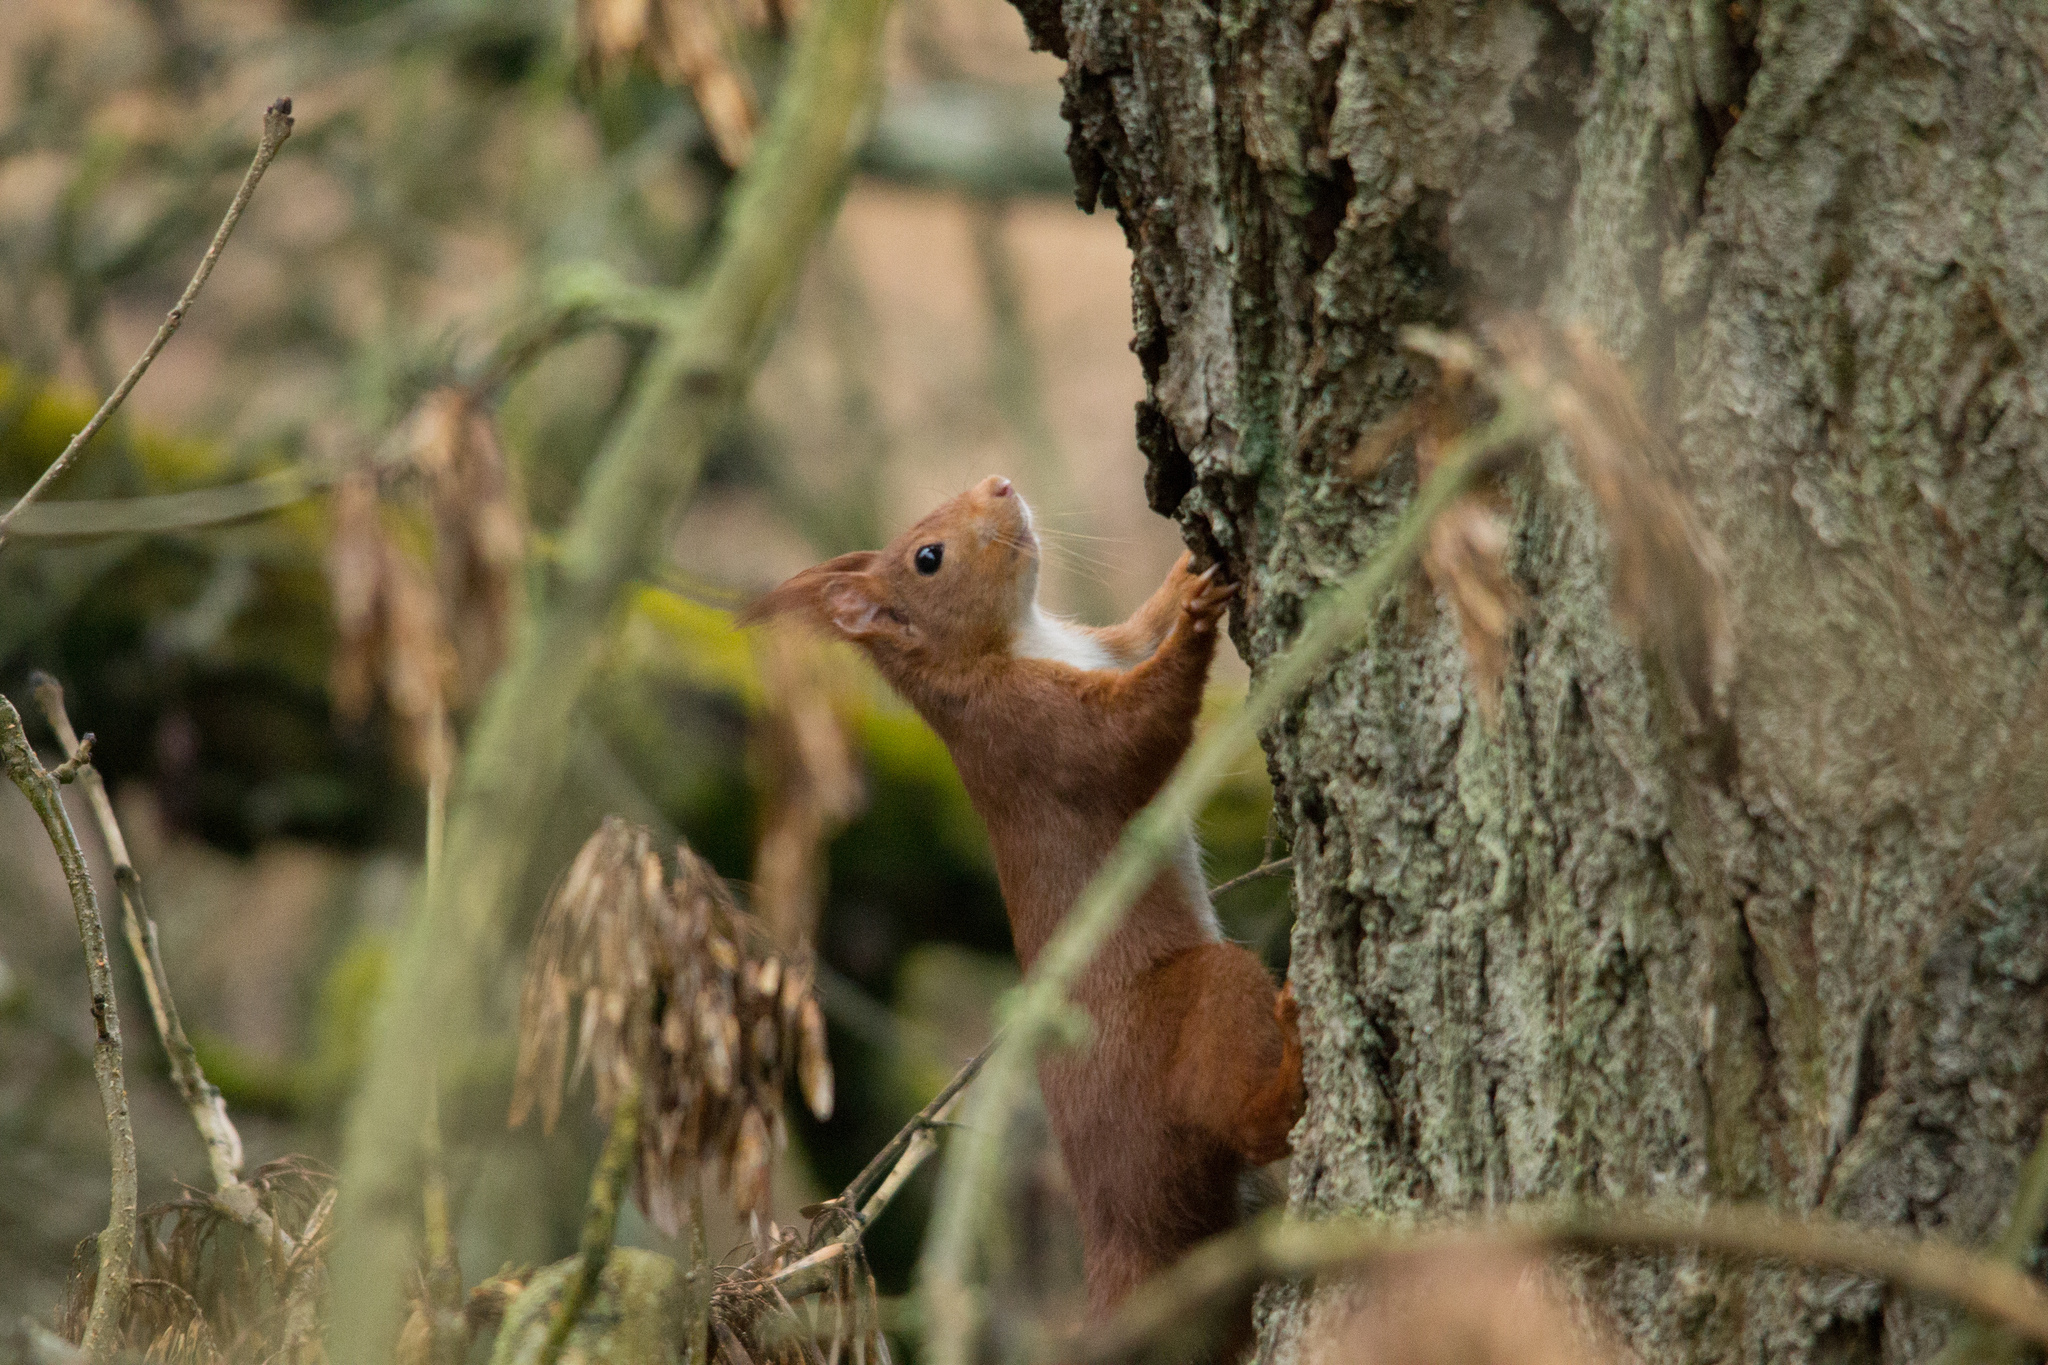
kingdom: Animalia
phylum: Chordata
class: Mammalia
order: Rodentia
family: Sciuridae
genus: Sciurus
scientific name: Sciurus vulgaris
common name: Eurasian red squirrel
